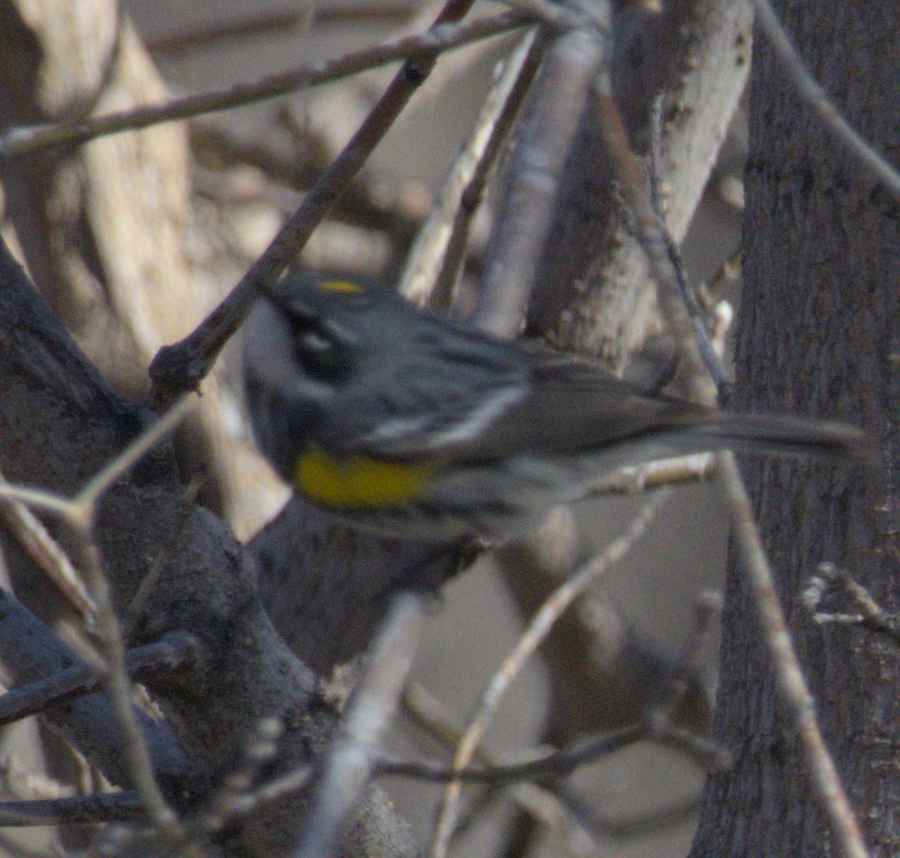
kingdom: Animalia
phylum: Chordata
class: Aves
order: Passeriformes
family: Parulidae
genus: Setophaga
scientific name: Setophaga coronata
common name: Myrtle warbler
